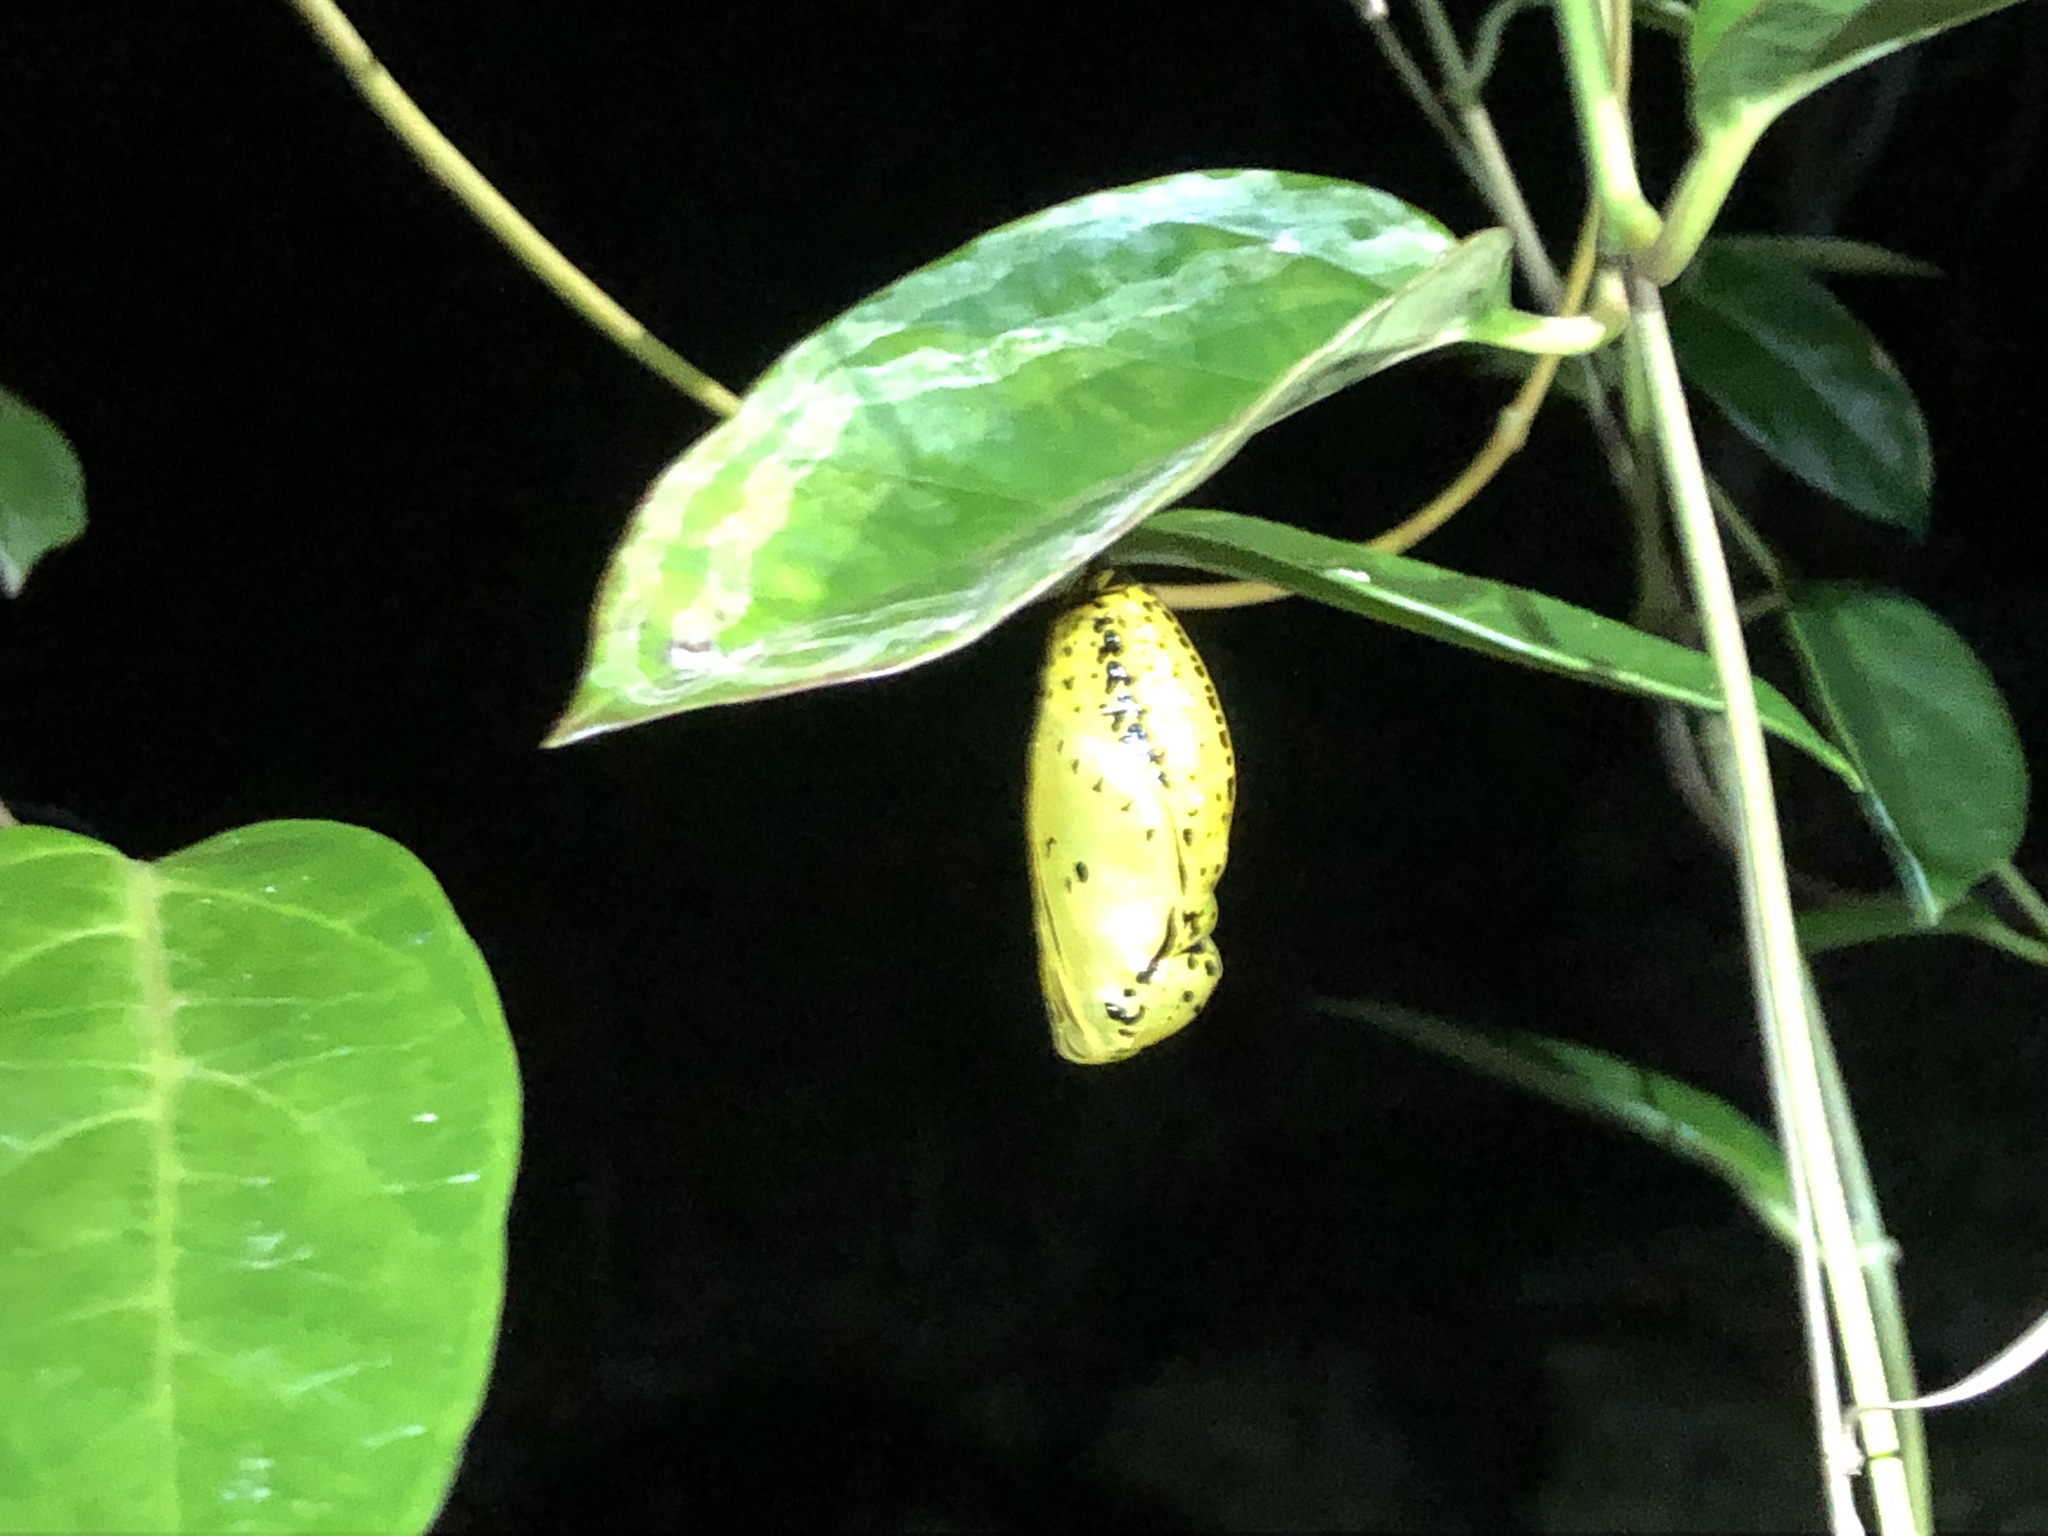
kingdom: Animalia
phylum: Arthropoda
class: Insecta
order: Lepidoptera
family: Nymphalidae
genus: Idea
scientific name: Idea leuconoe
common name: Rice paper butterfly
